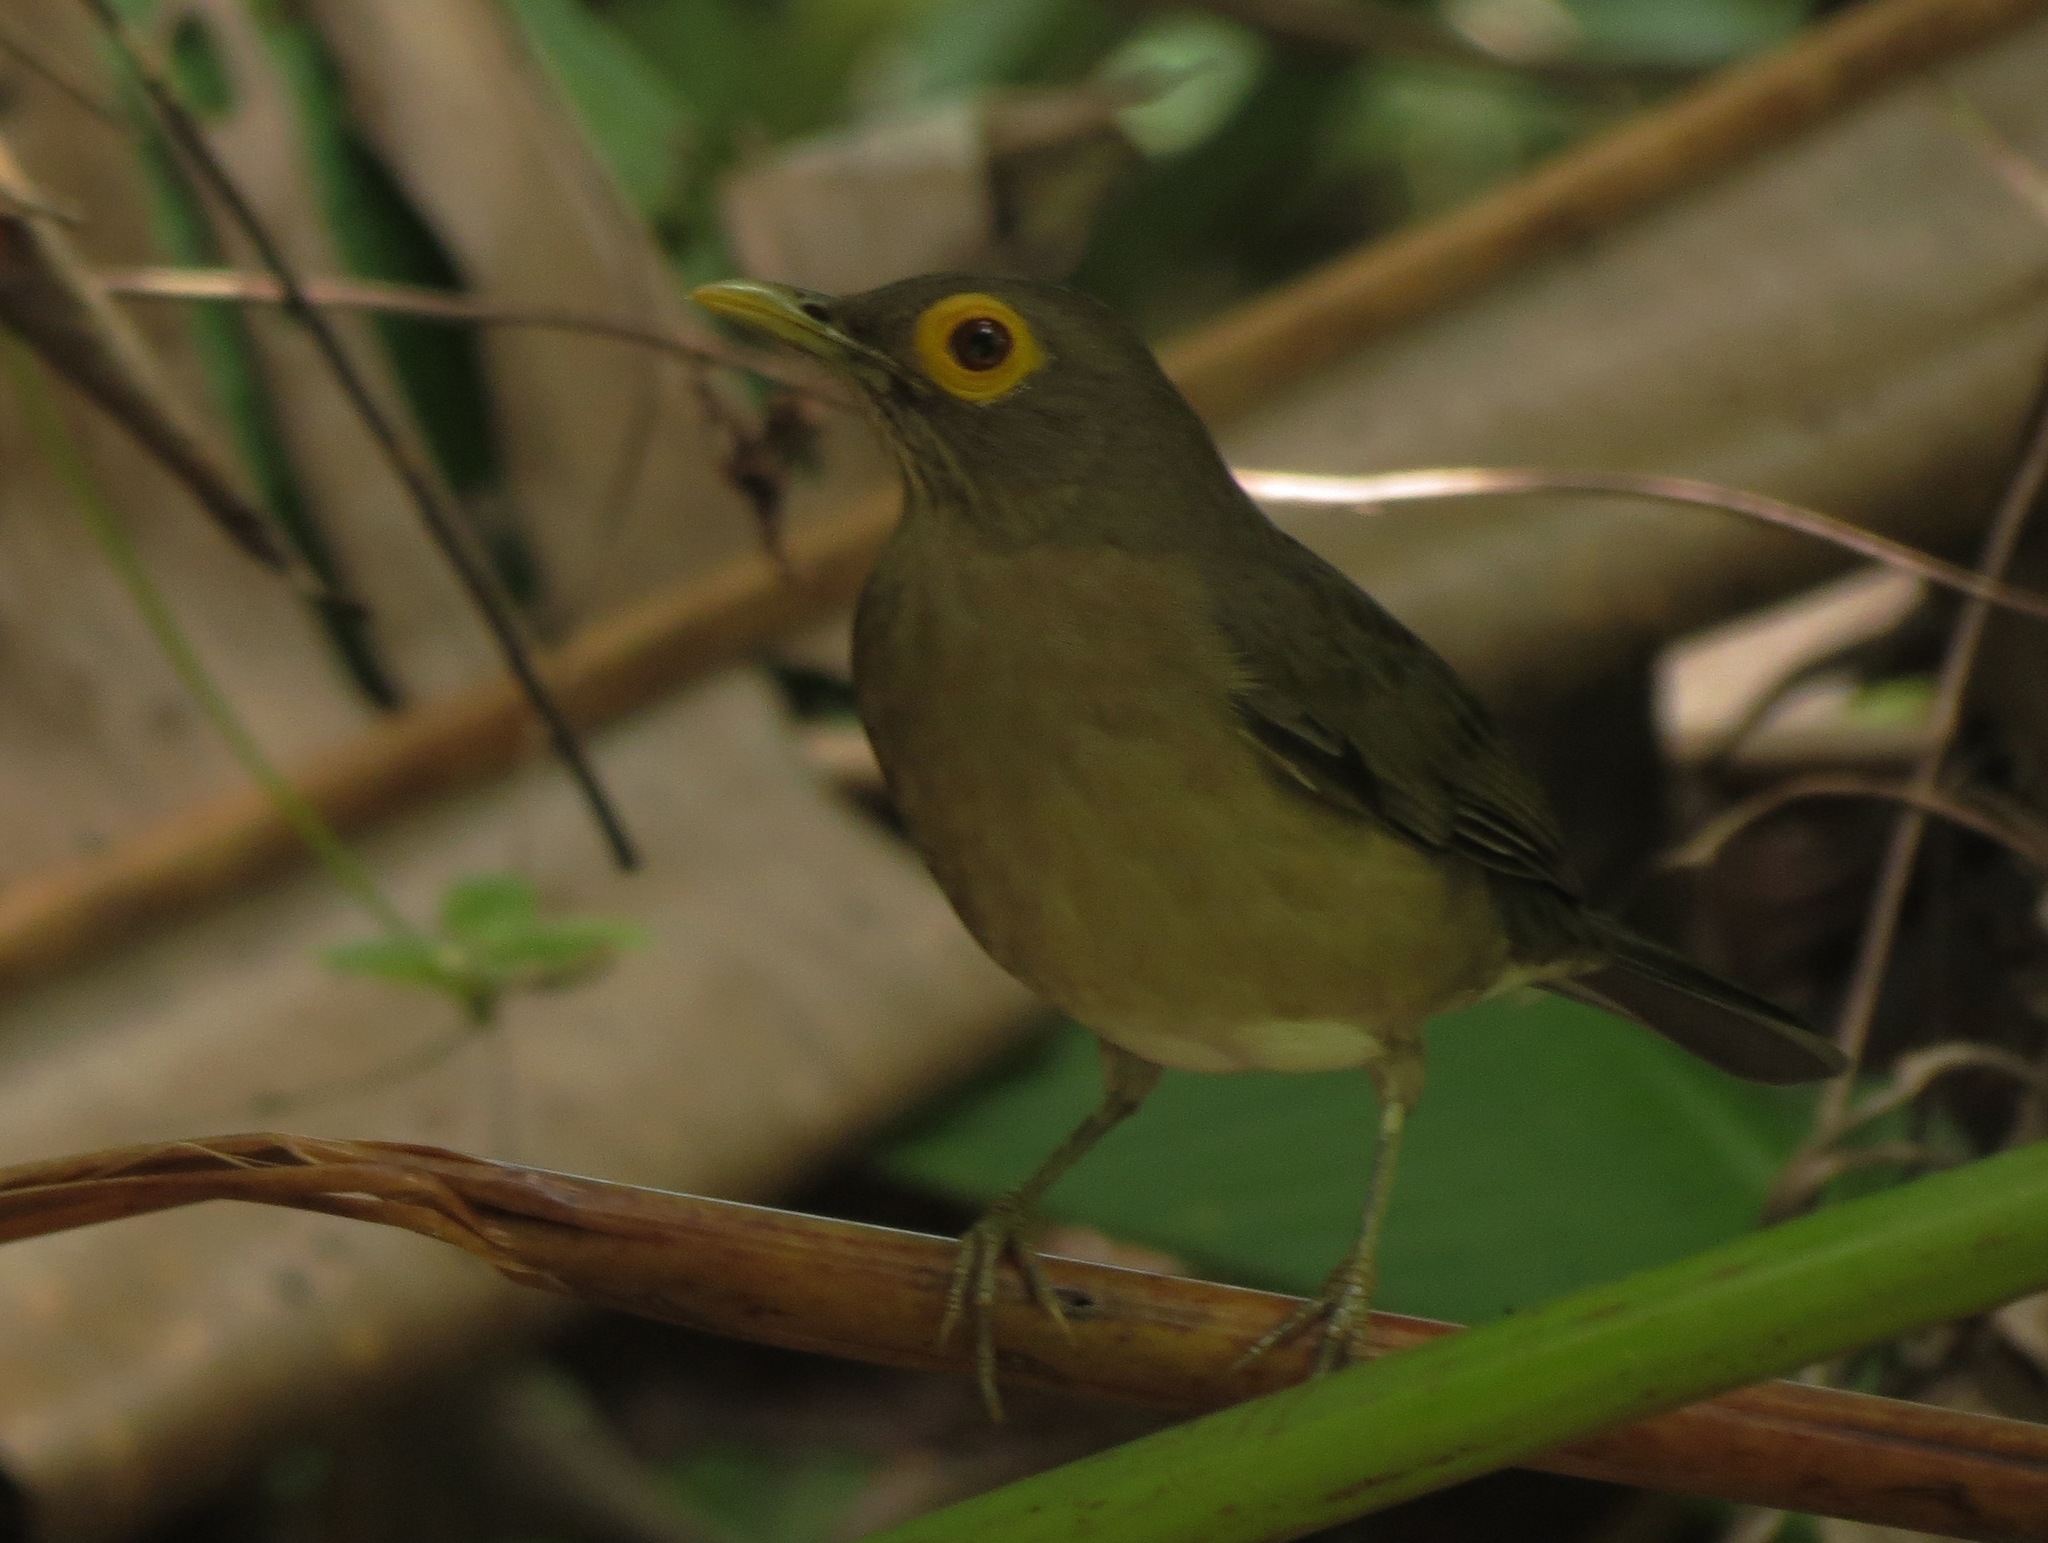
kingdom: Animalia
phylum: Chordata
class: Aves
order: Passeriformes
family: Turdidae
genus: Turdus
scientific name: Turdus nudigenis
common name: Spectacled thrush
